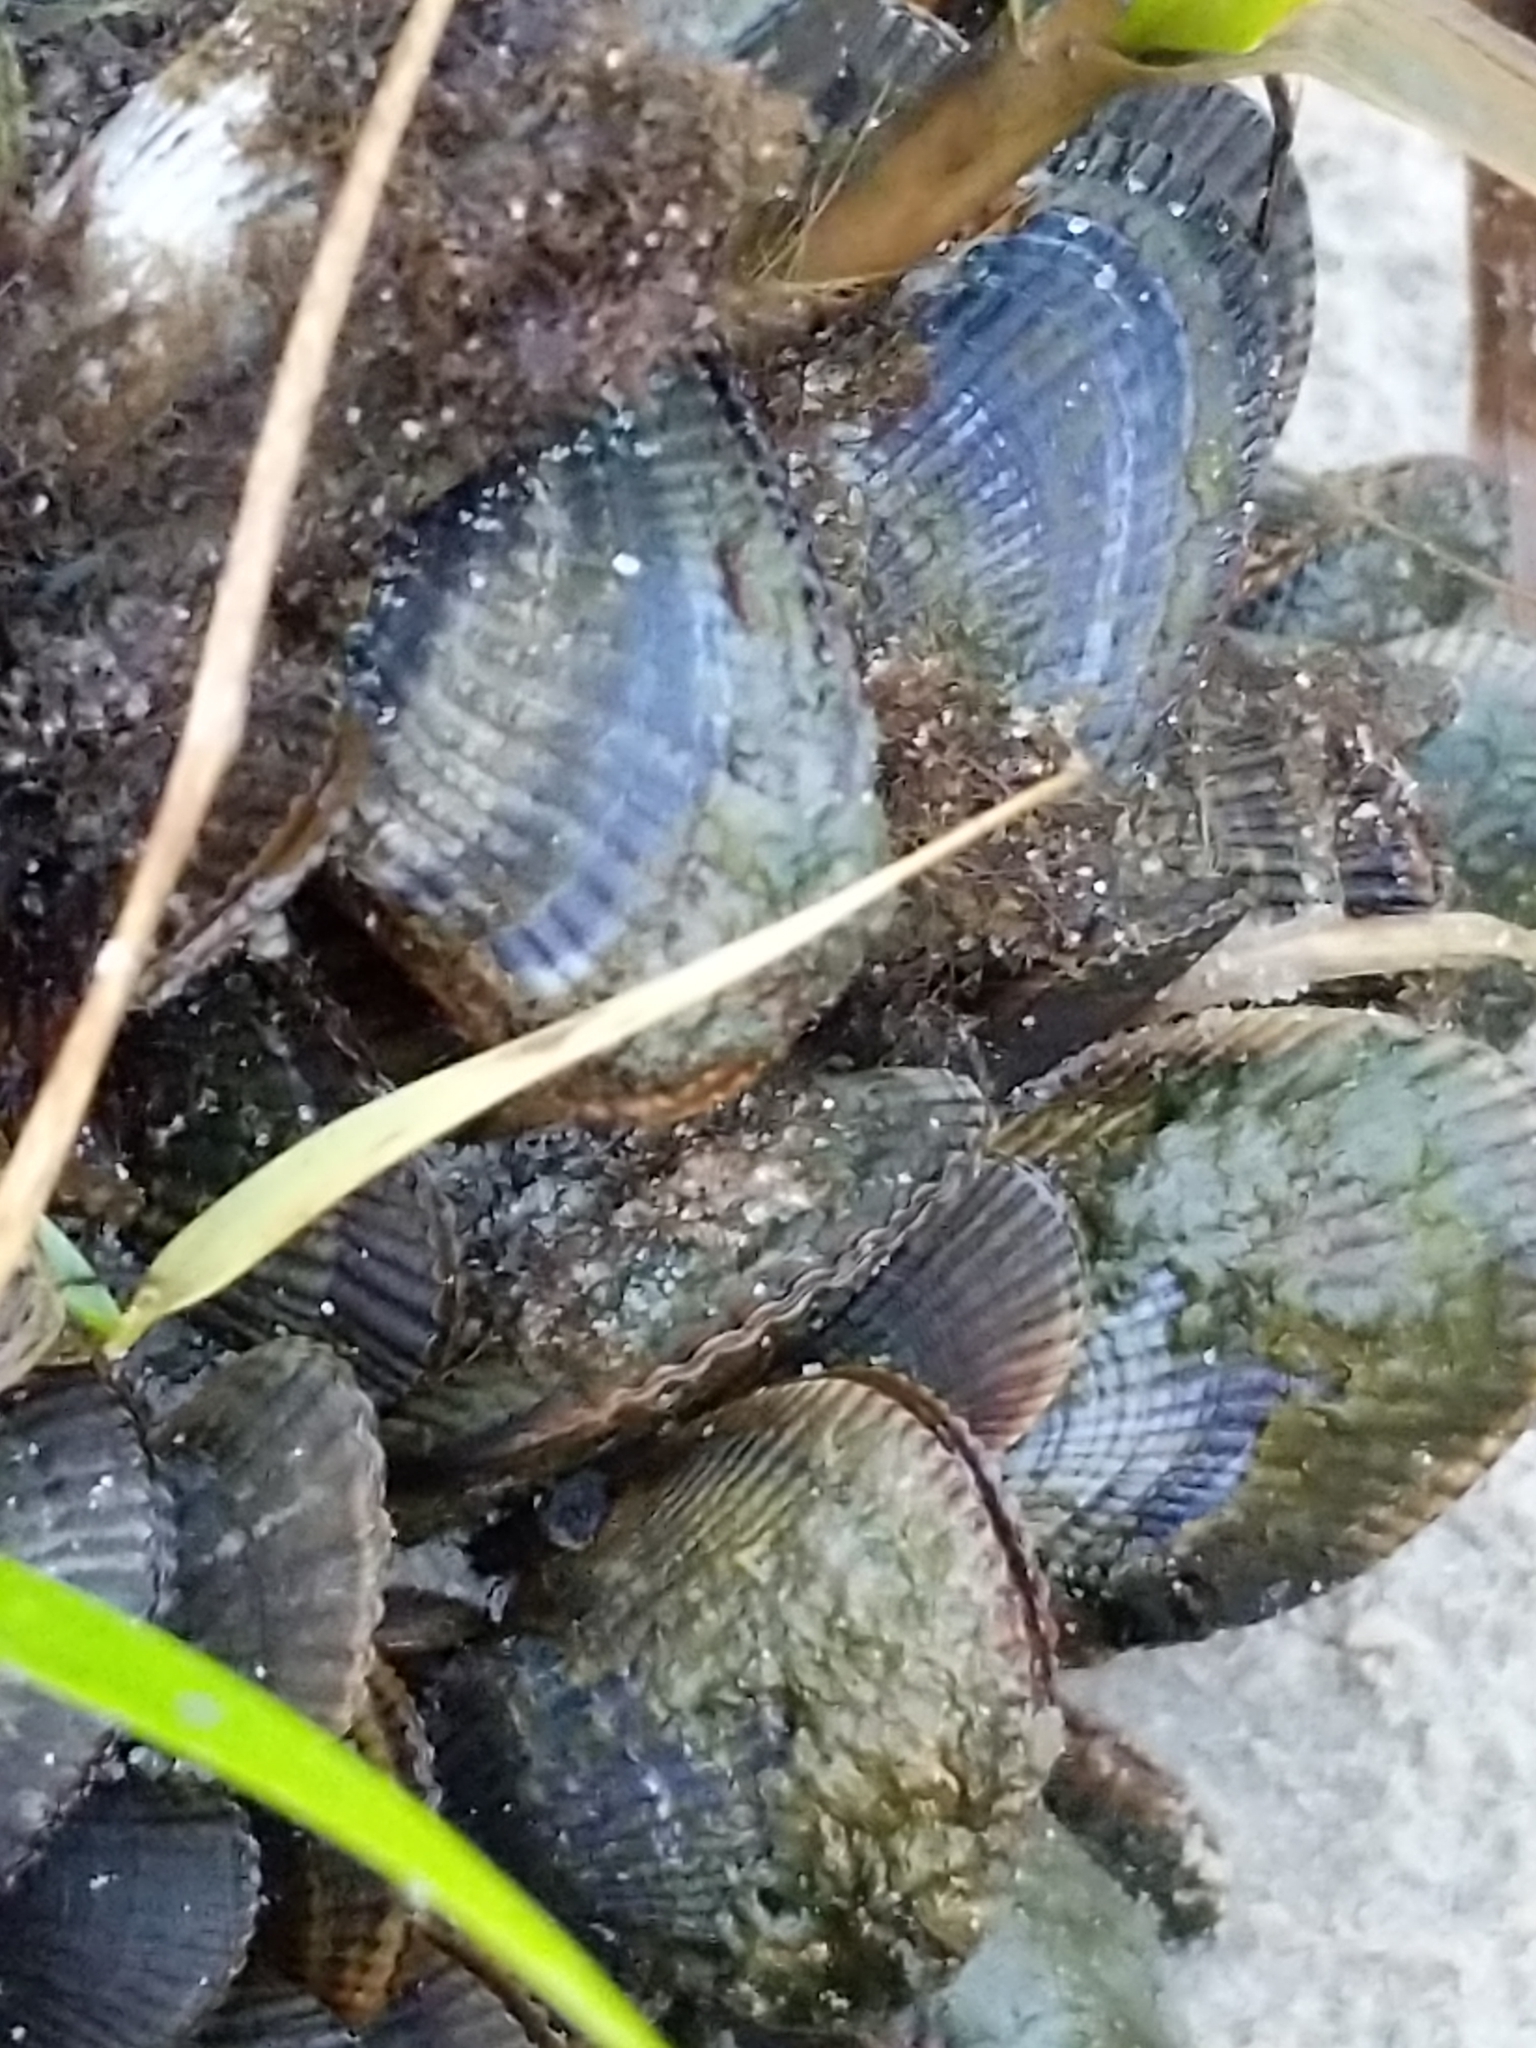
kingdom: Animalia
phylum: Mollusca
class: Bivalvia
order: Mytilida
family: Mytilidae
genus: Geukensia
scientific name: Geukensia demissa
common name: Ribbed mussel
